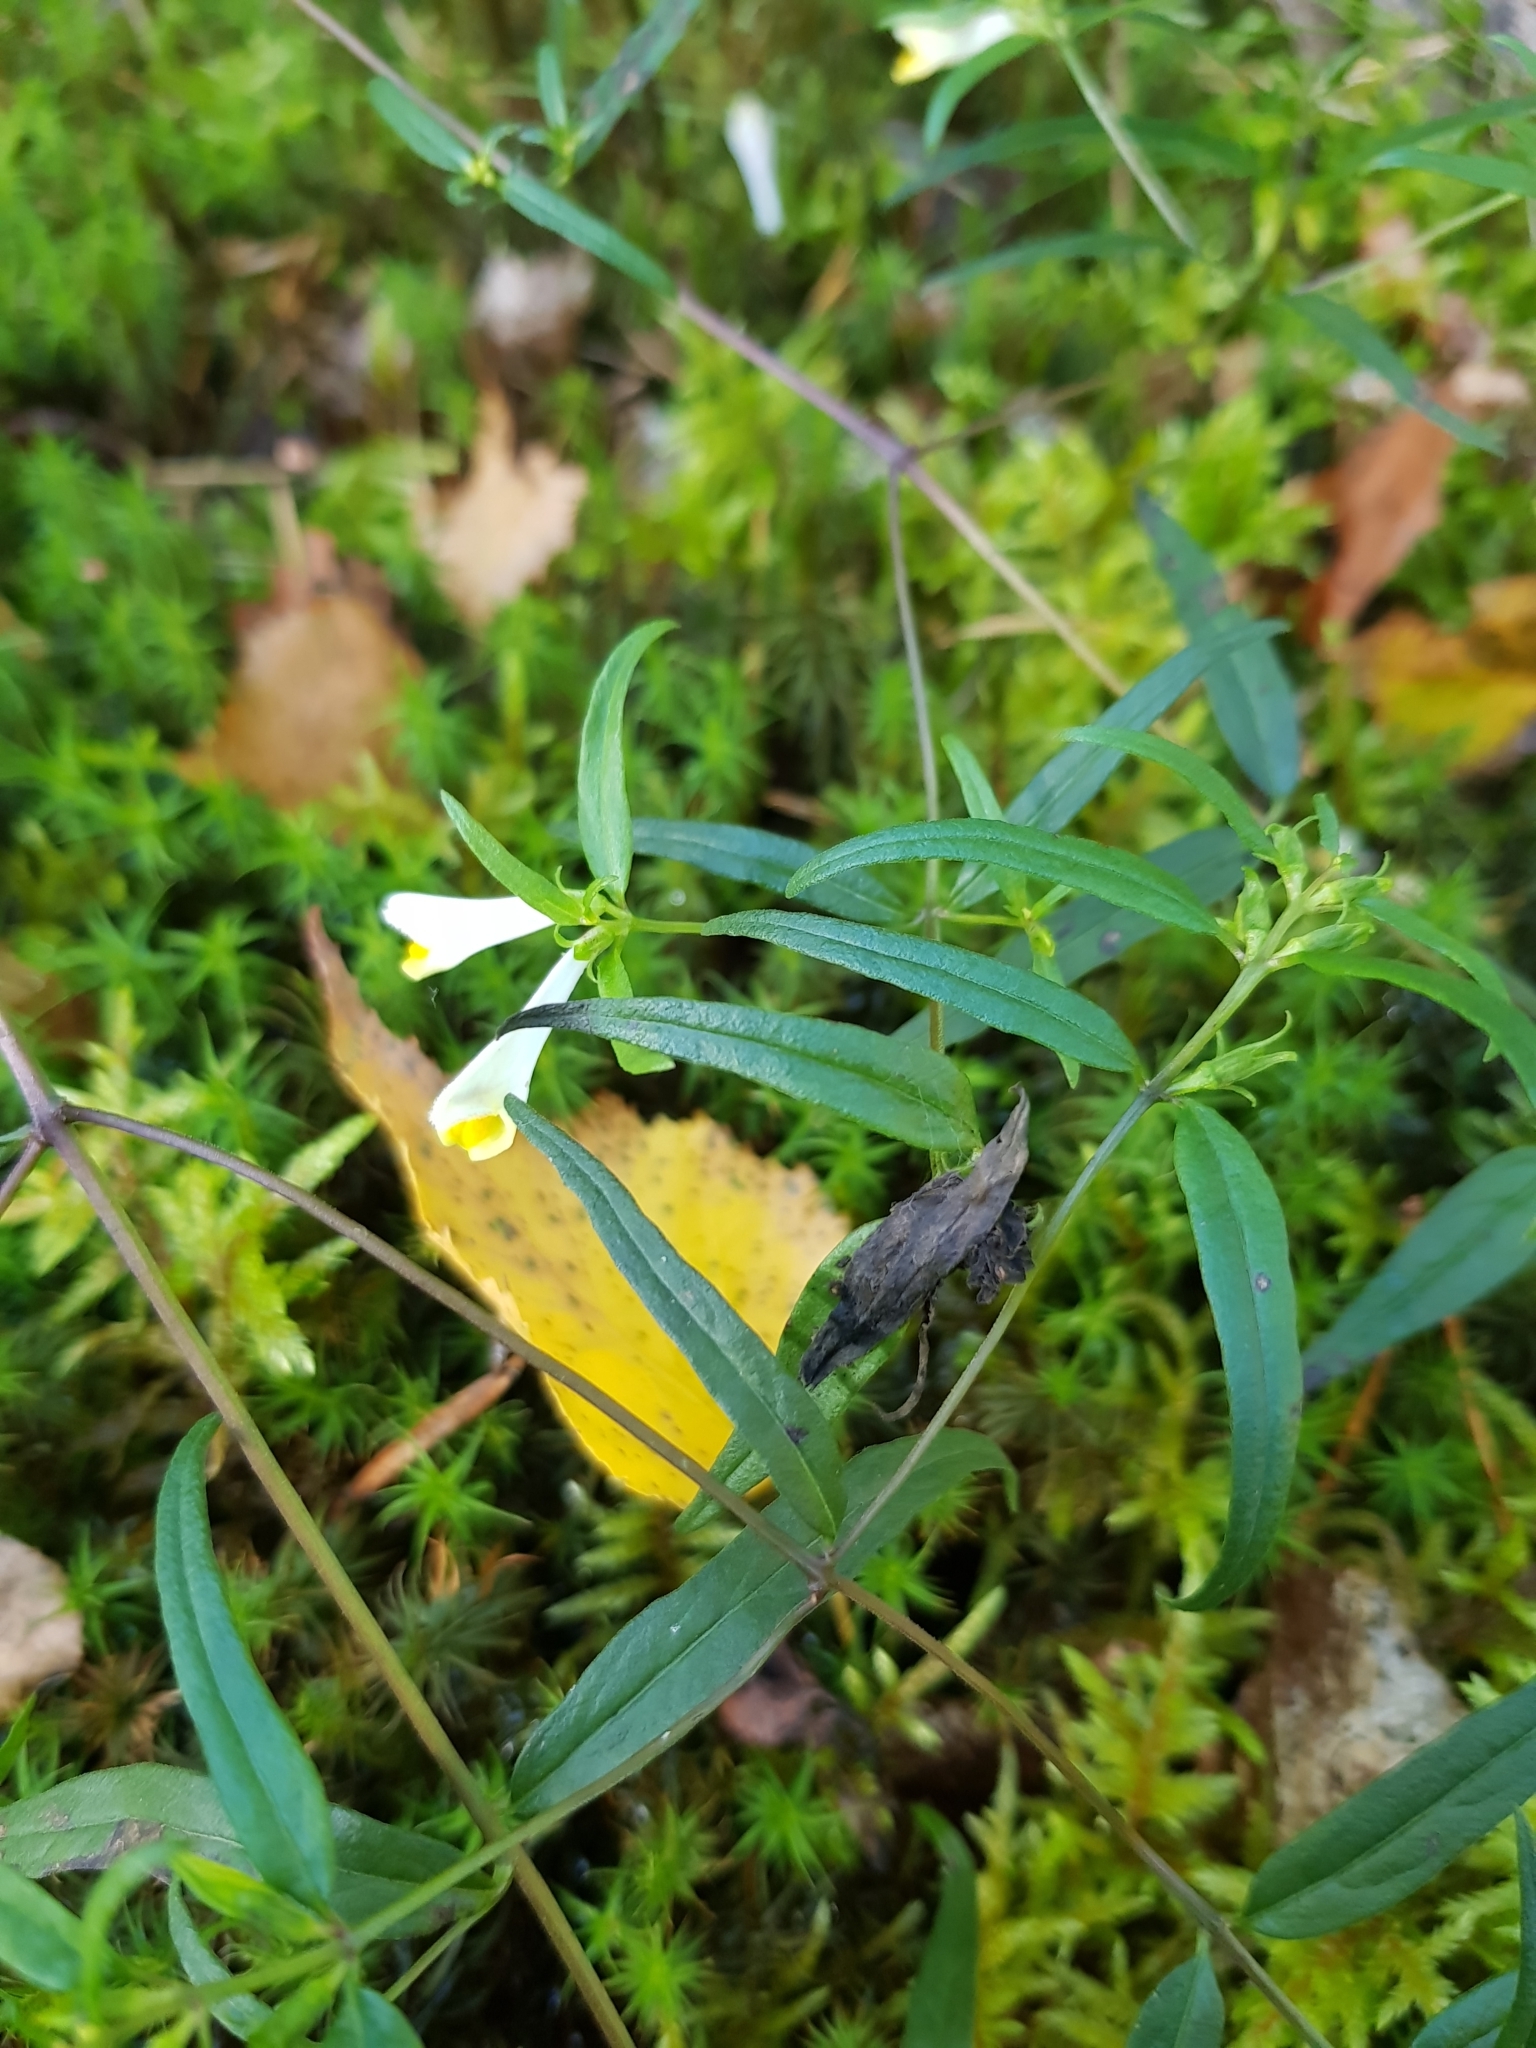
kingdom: Plantae
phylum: Tracheophyta
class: Magnoliopsida
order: Lamiales
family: Orobanchaceae
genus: Melampyrum
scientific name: Melampyrum pratense
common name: Common cow-wheat
